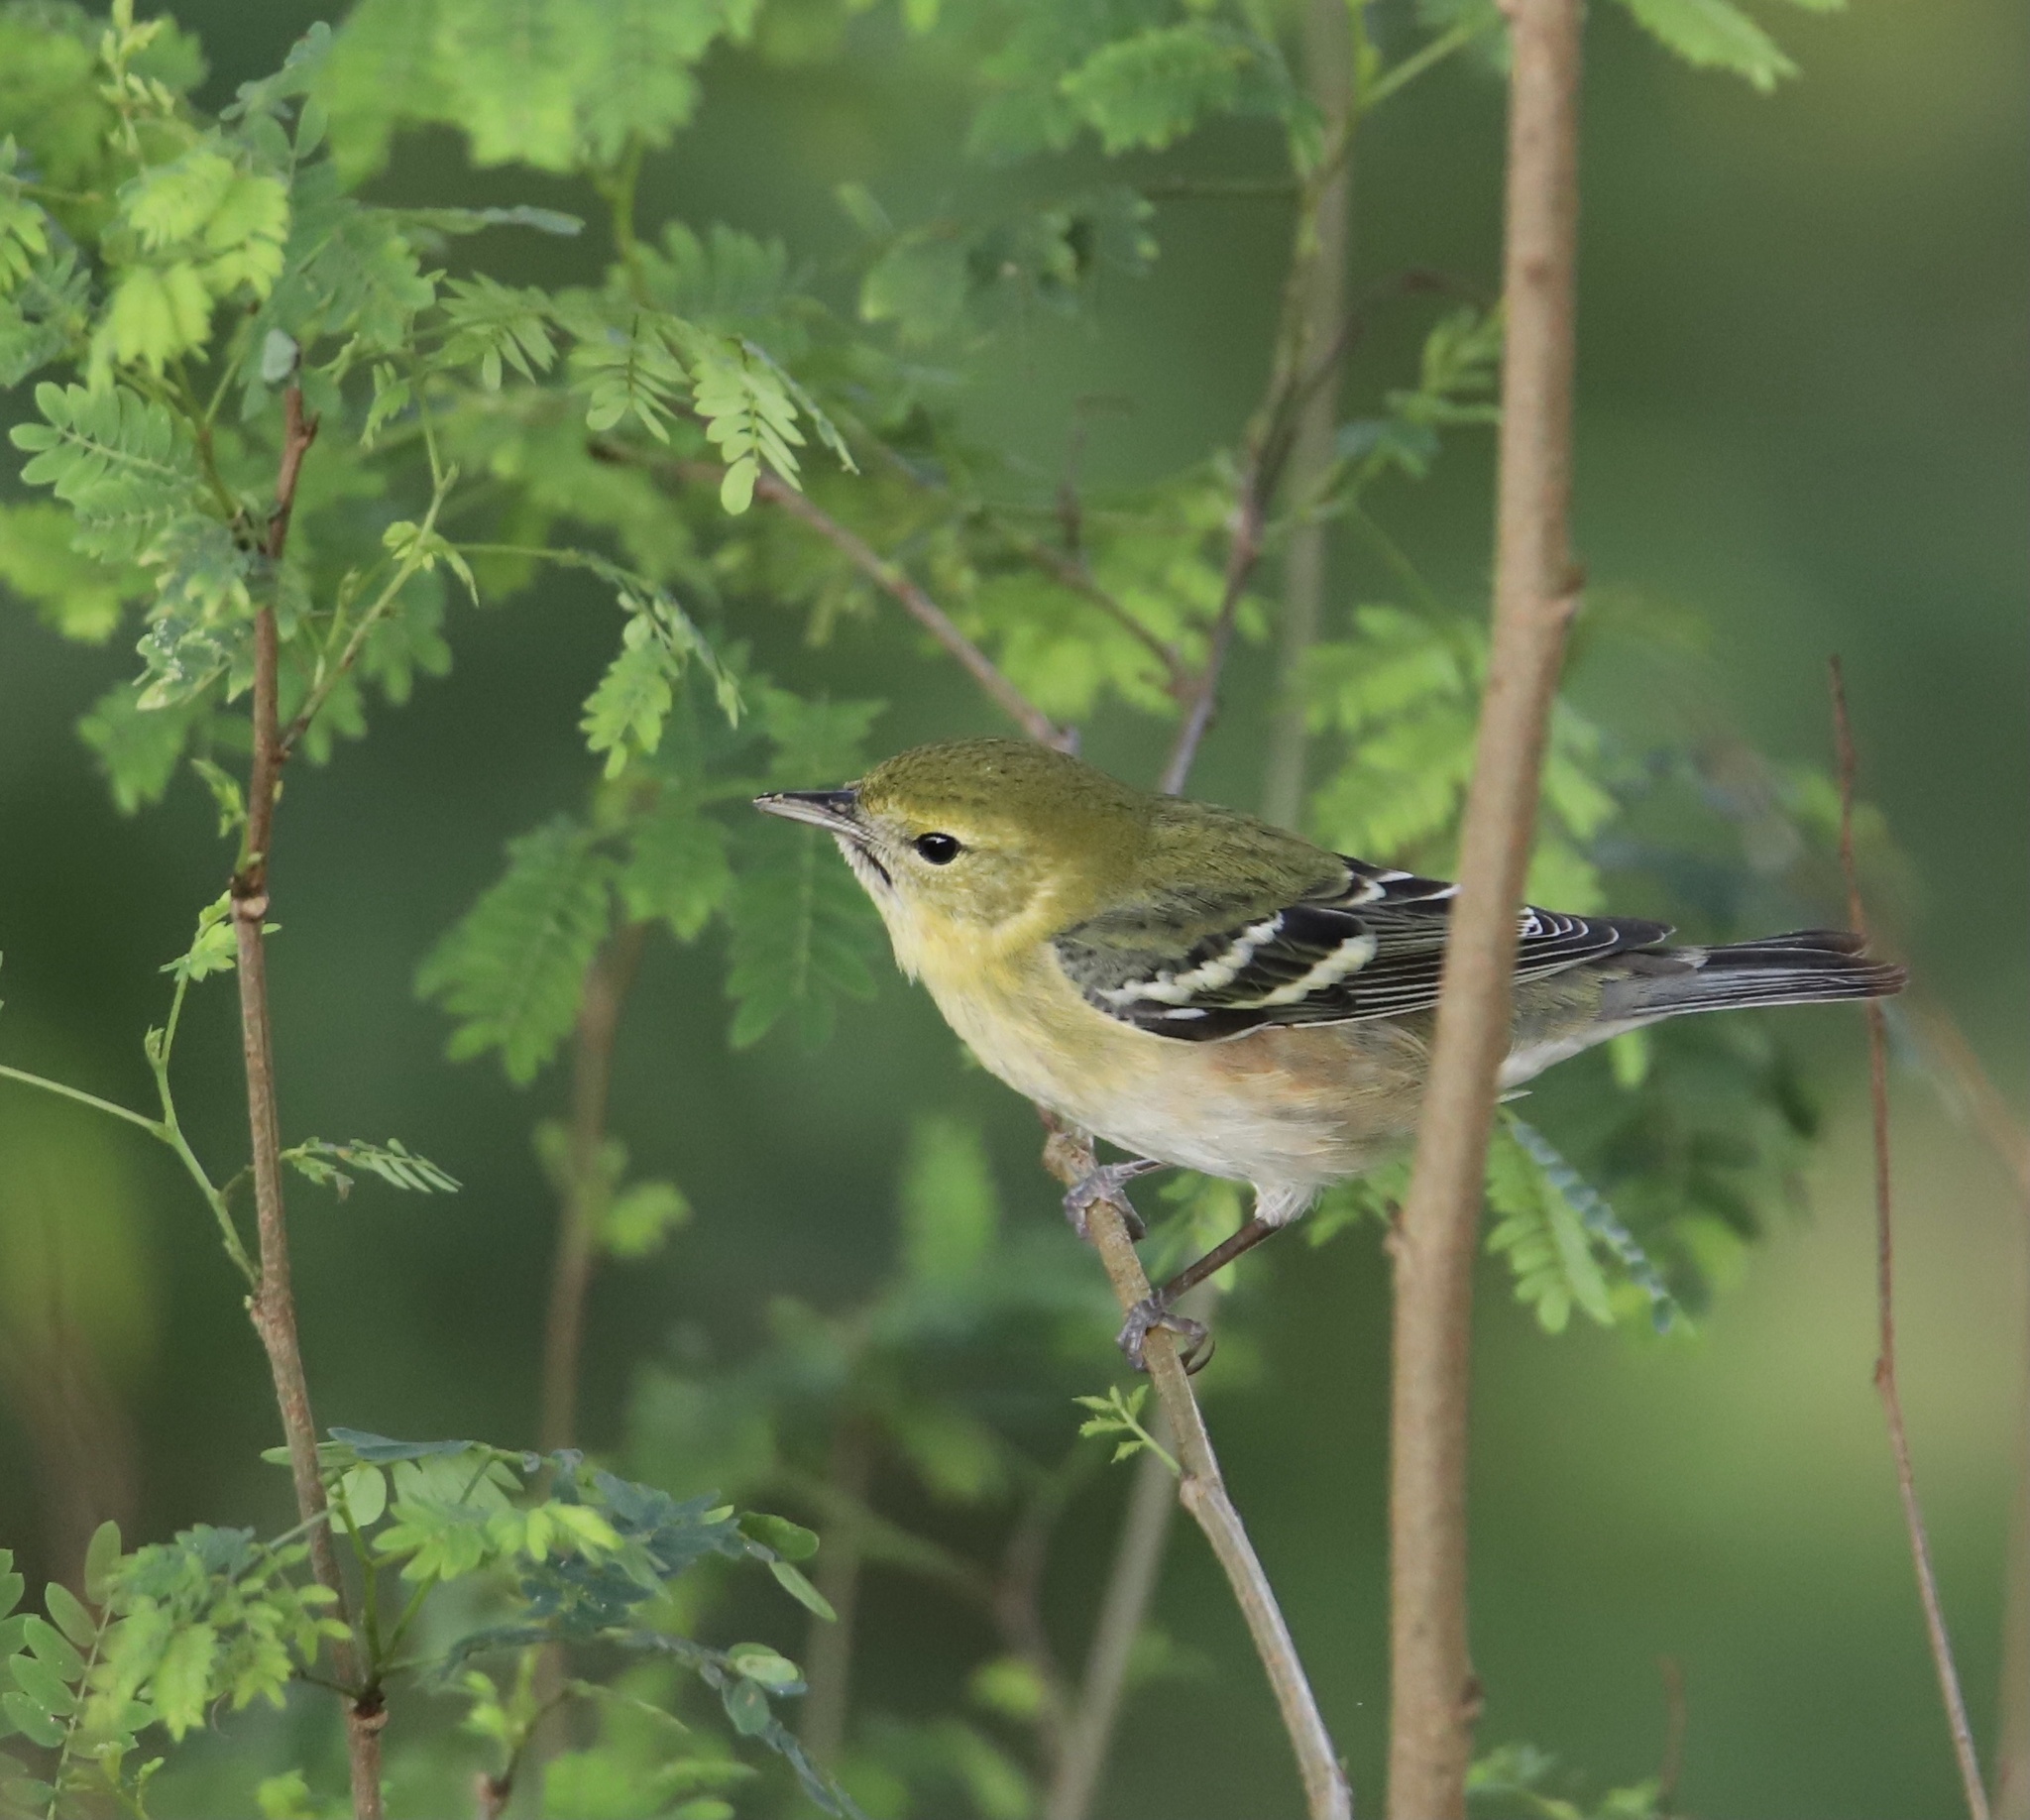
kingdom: Animalia
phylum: Chordata
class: Aves
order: Passeriformes
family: Parulidae
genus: Setophaga
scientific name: Setophaga castanea
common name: Bay-breasted warbler
